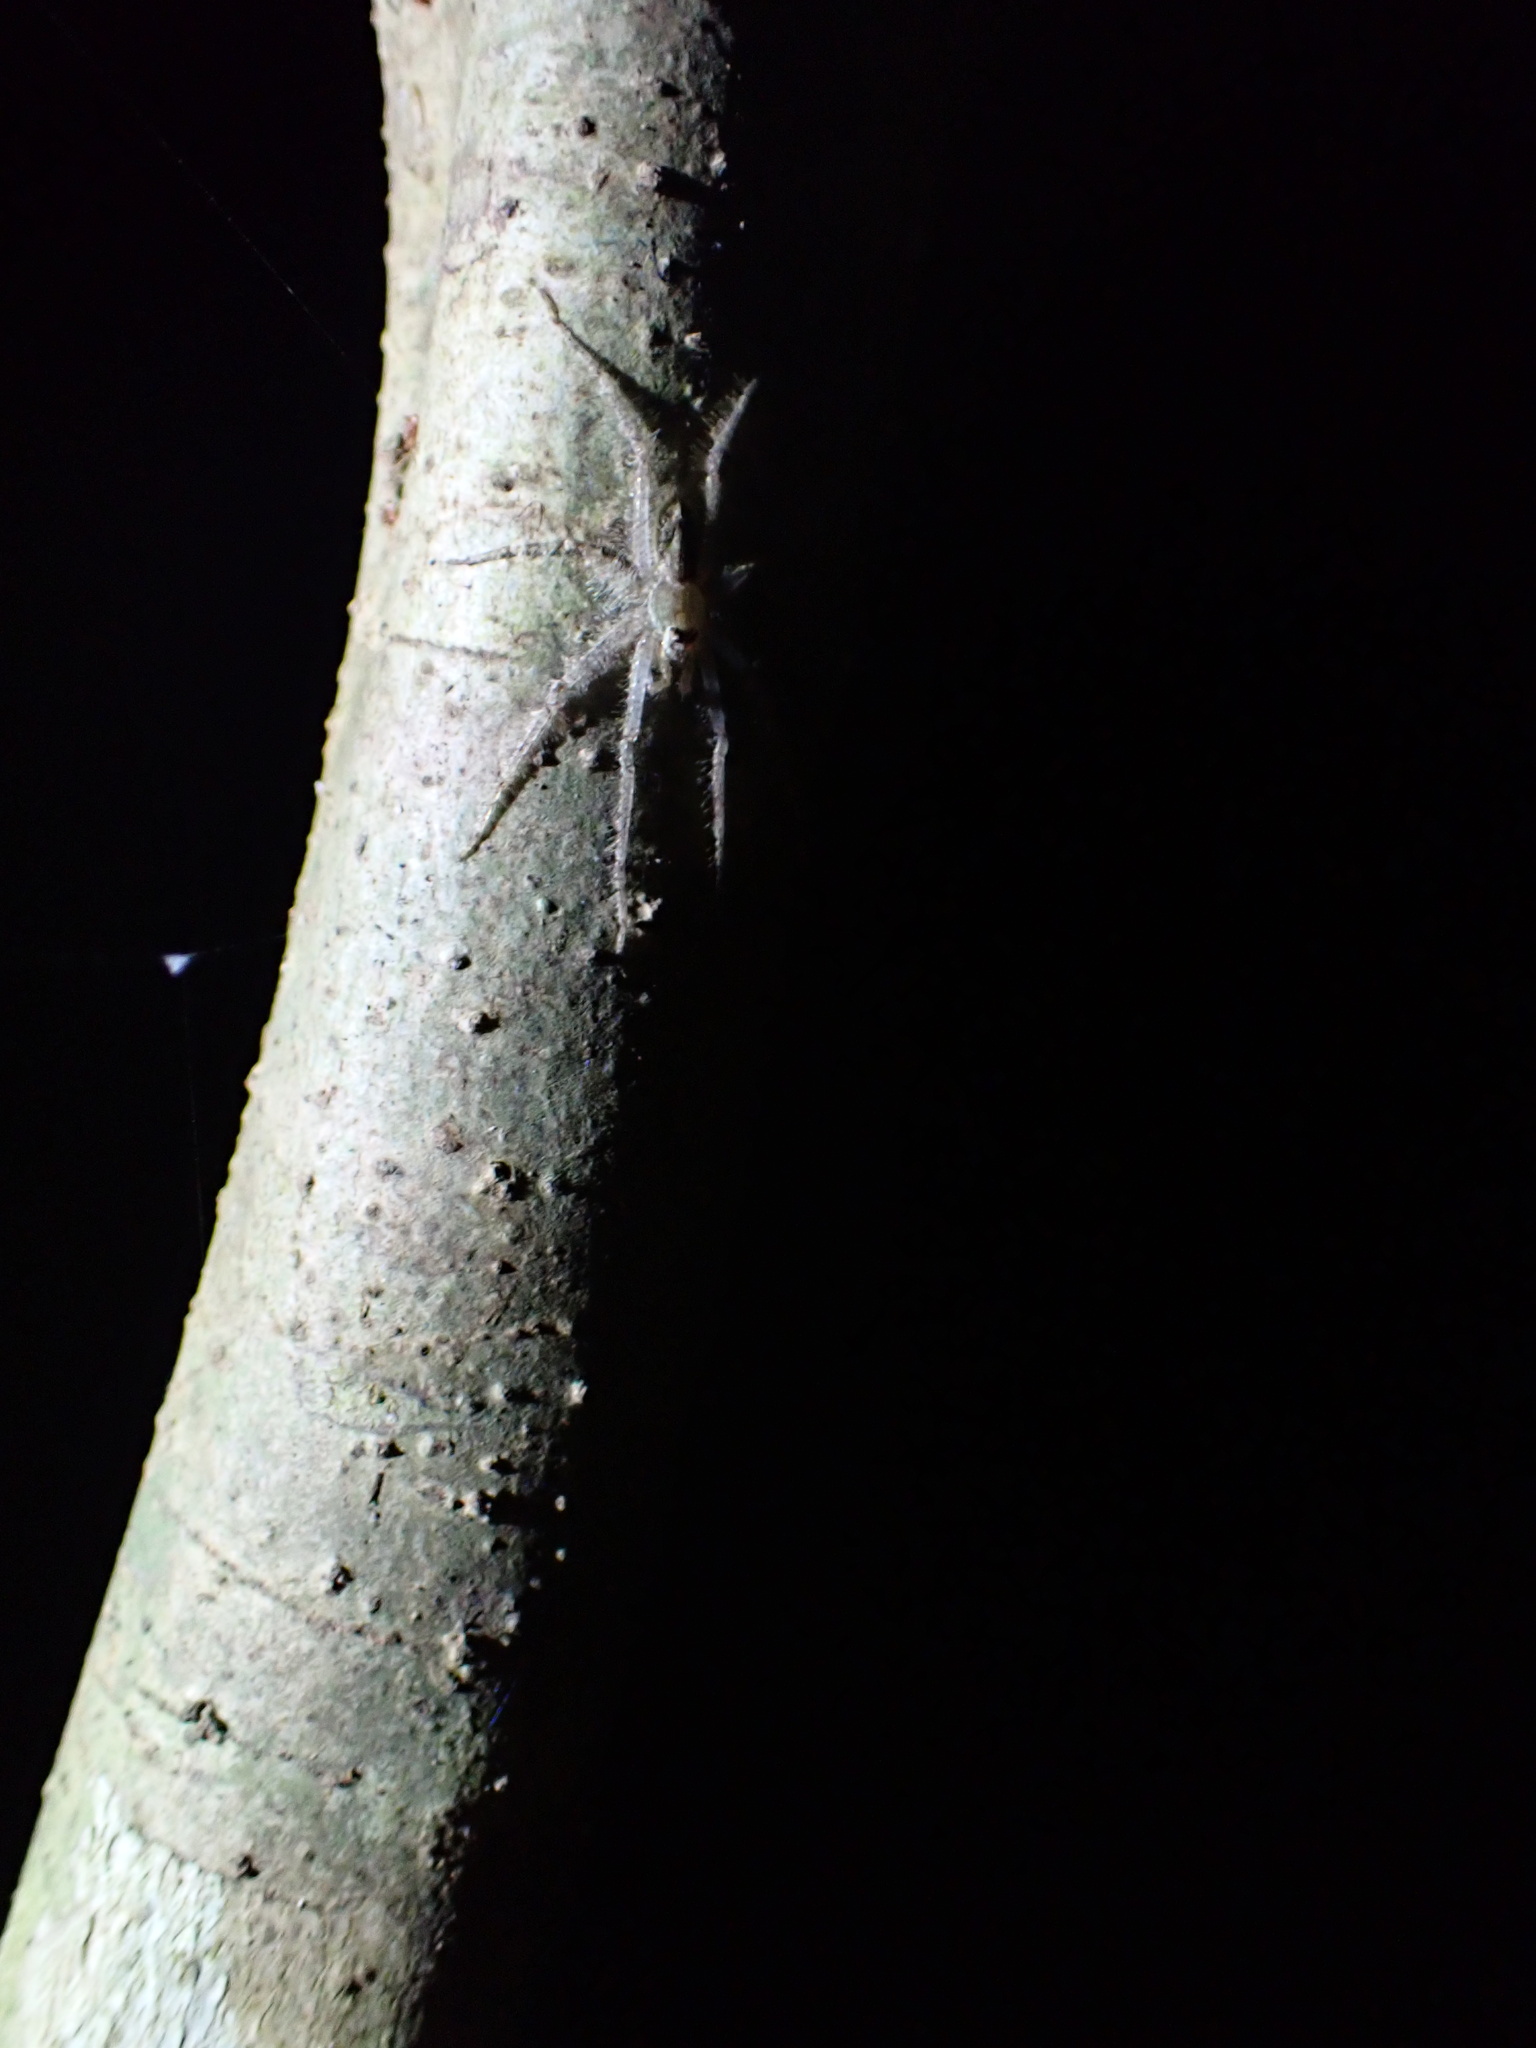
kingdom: Animalia
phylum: Arthropoda
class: Arachnida
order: Araneae
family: Sparassidae
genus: Pandercetes
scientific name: Pandercetes gracilis
